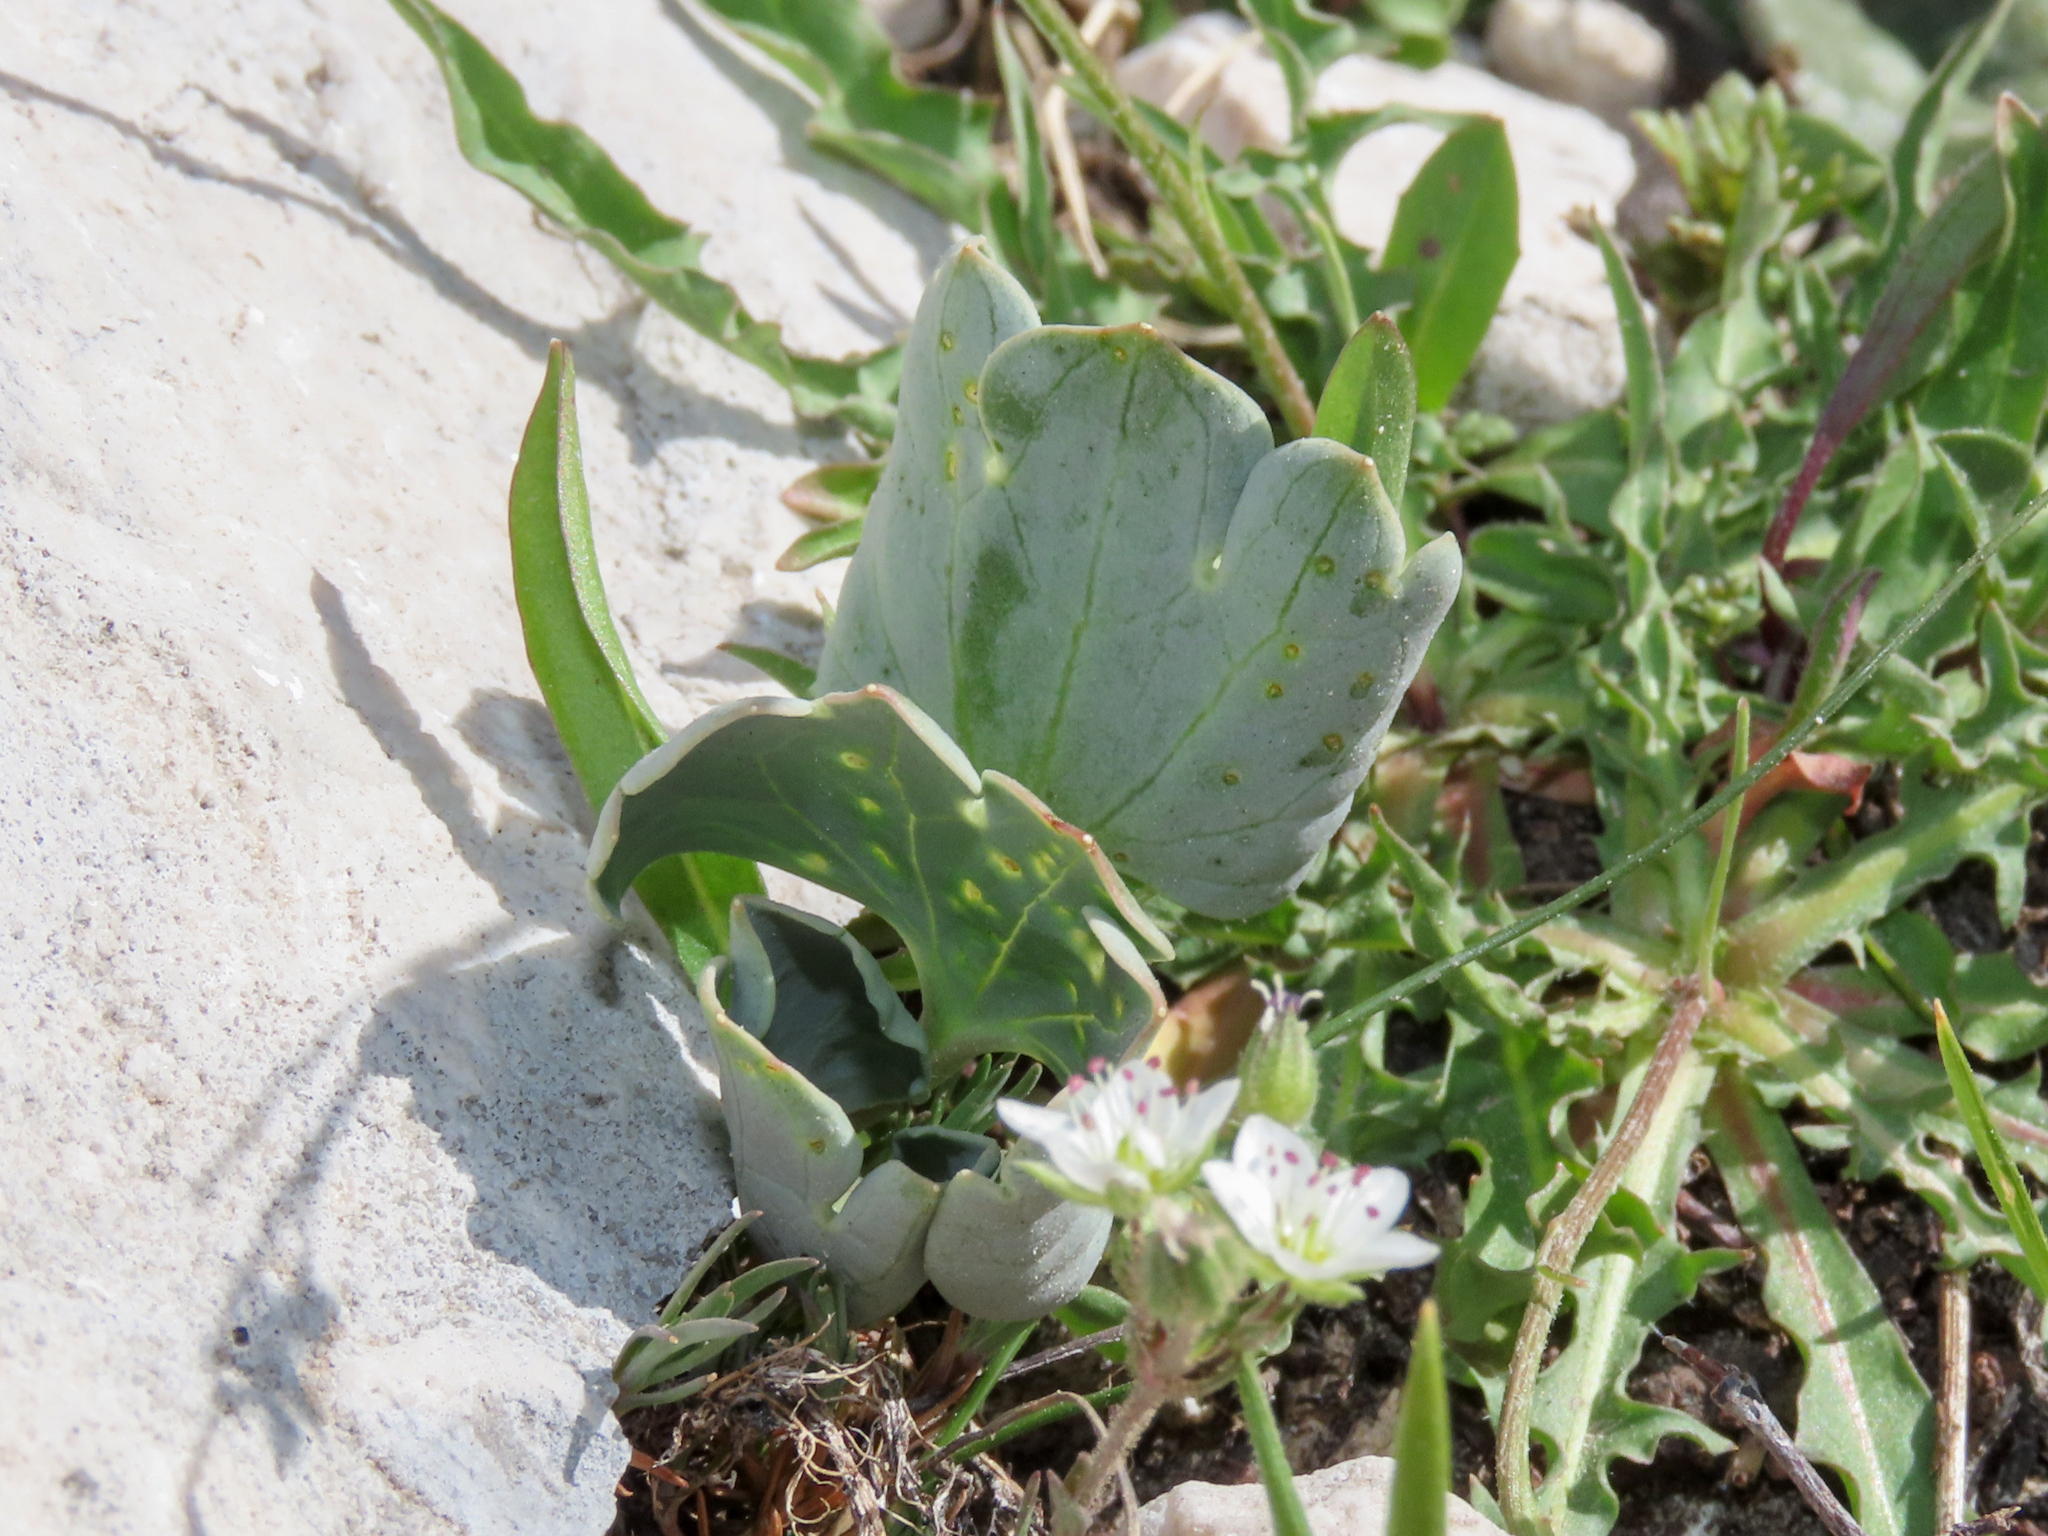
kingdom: Plantae
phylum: Tracheophyta
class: Magnoliopsida
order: Ranunculales
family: Ranunculaceae
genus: Ranunculus
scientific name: Ranunculus brevifolius
